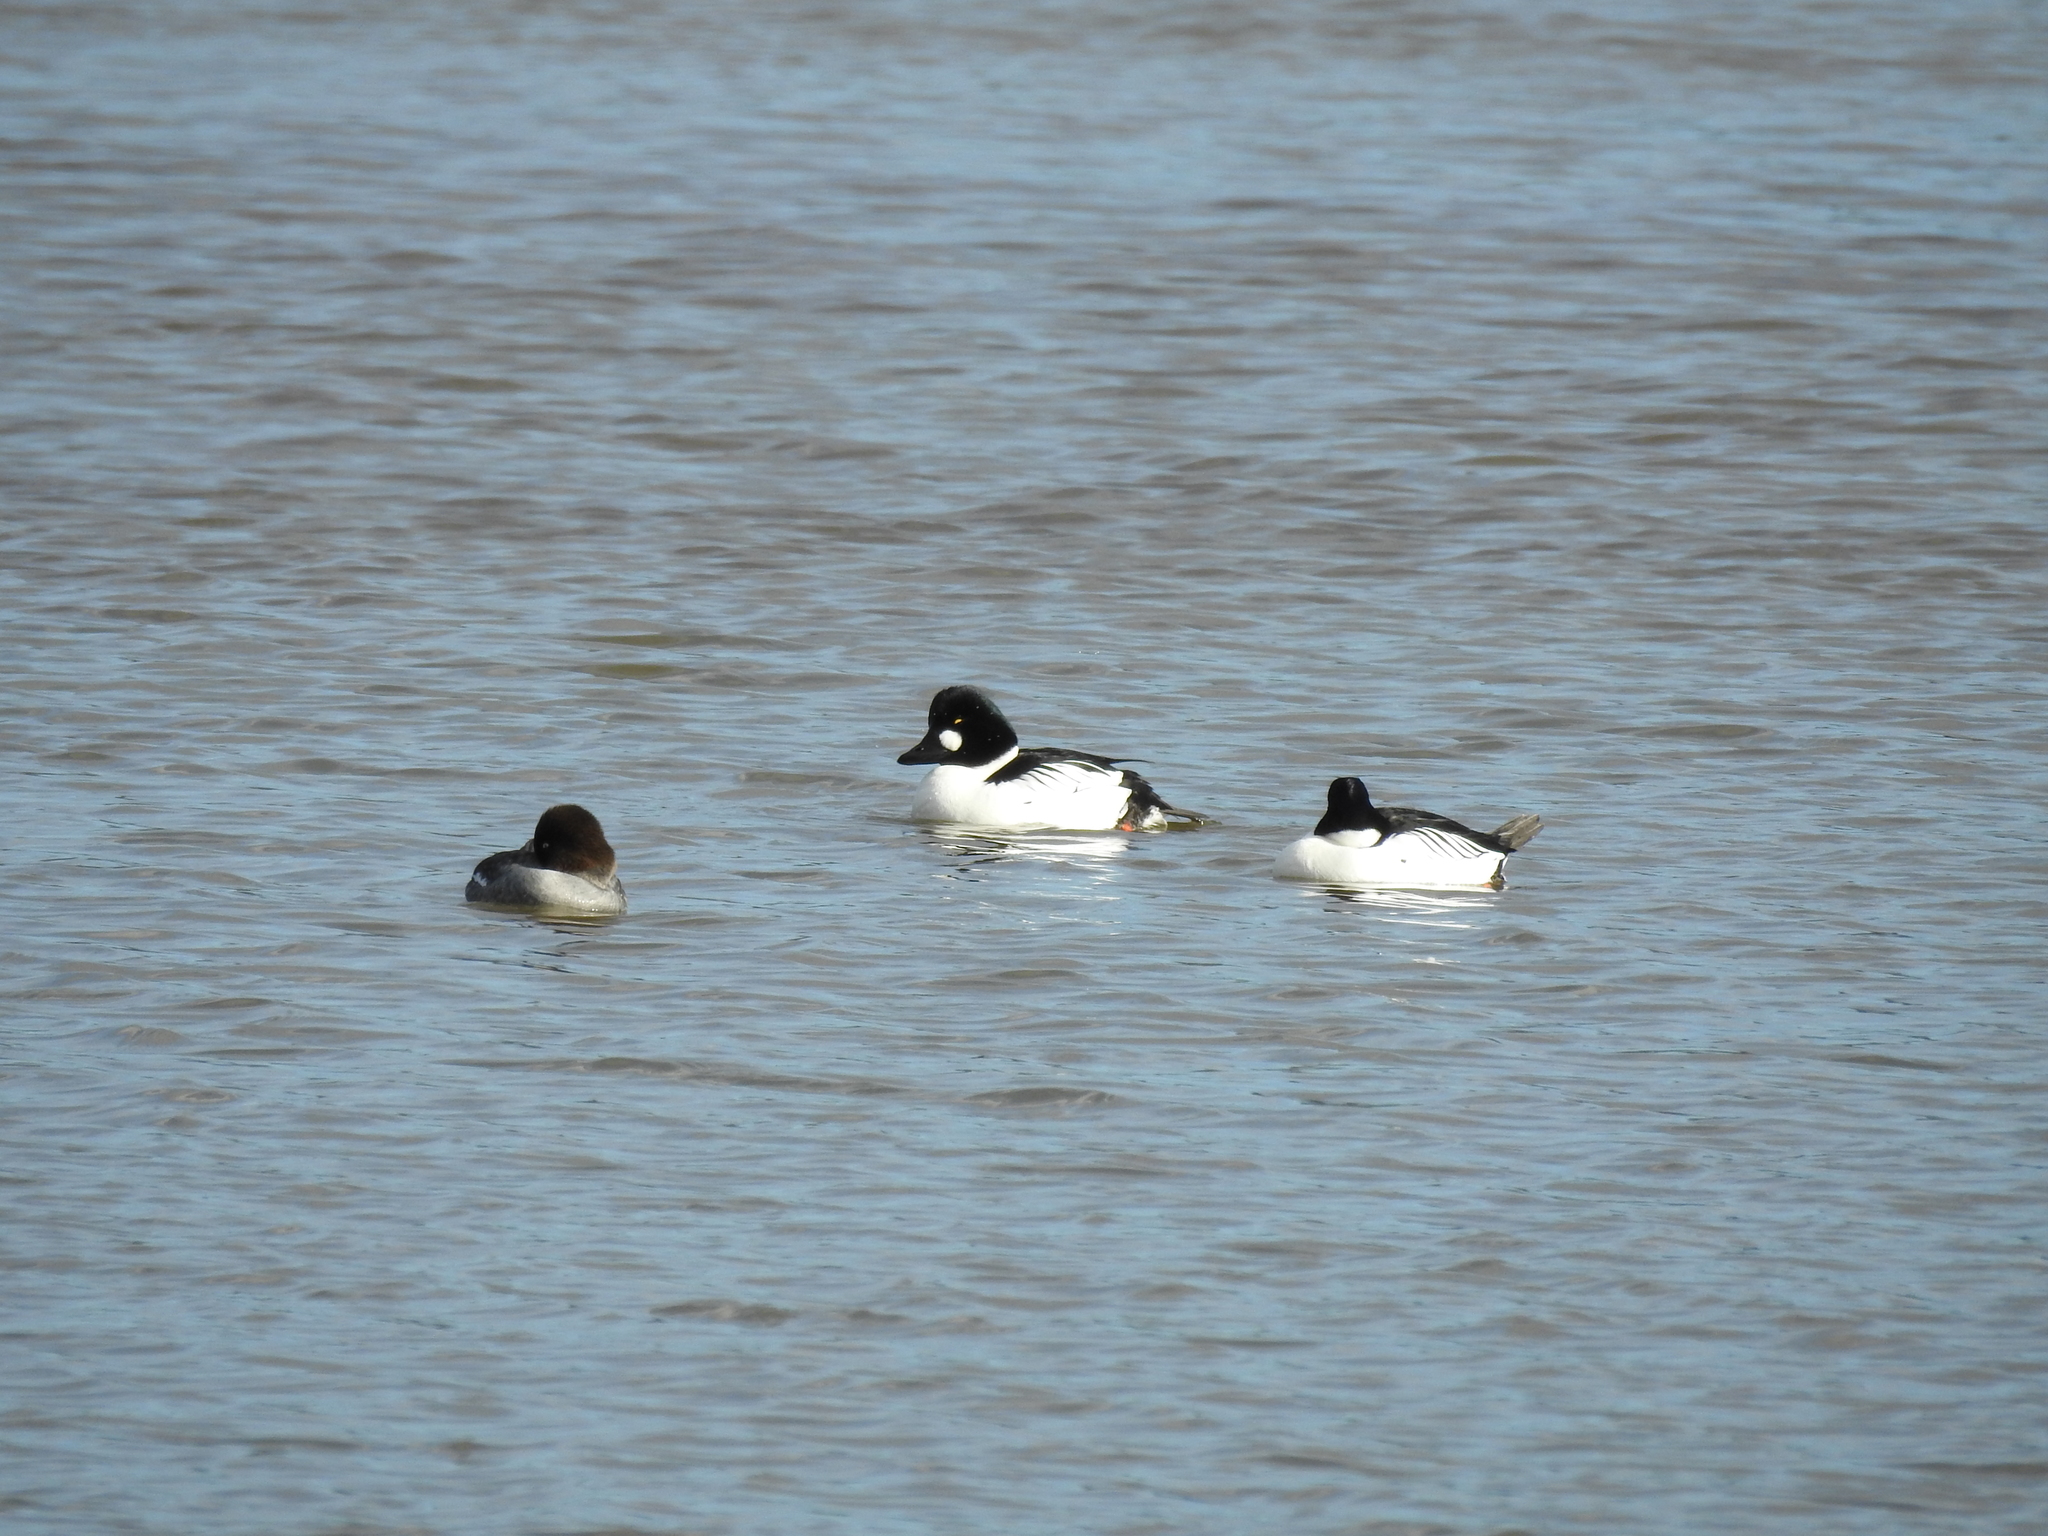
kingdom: Animalia
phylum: Chordata
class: Aves
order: Anseriformes
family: Anatidae
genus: Bucephala
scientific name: Bucephala clangula
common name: Common goldeneye
